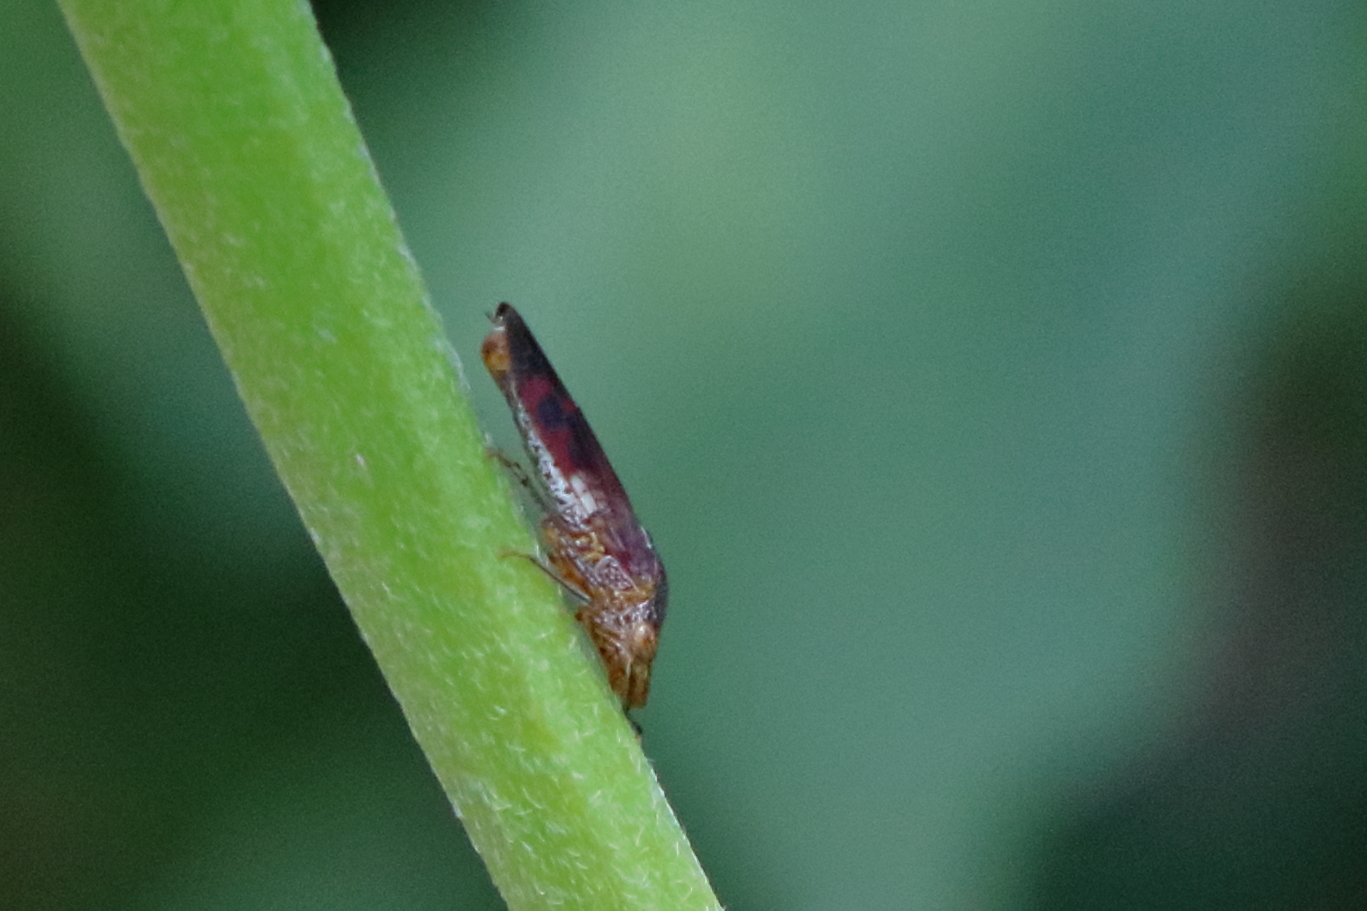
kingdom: Animalia
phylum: Arthropoda
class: Insecta
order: Hemiptera
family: Cicadellidae
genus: Homalodisca
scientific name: Homalodisca vitripennis
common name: Glassy-winged sharpshooter
